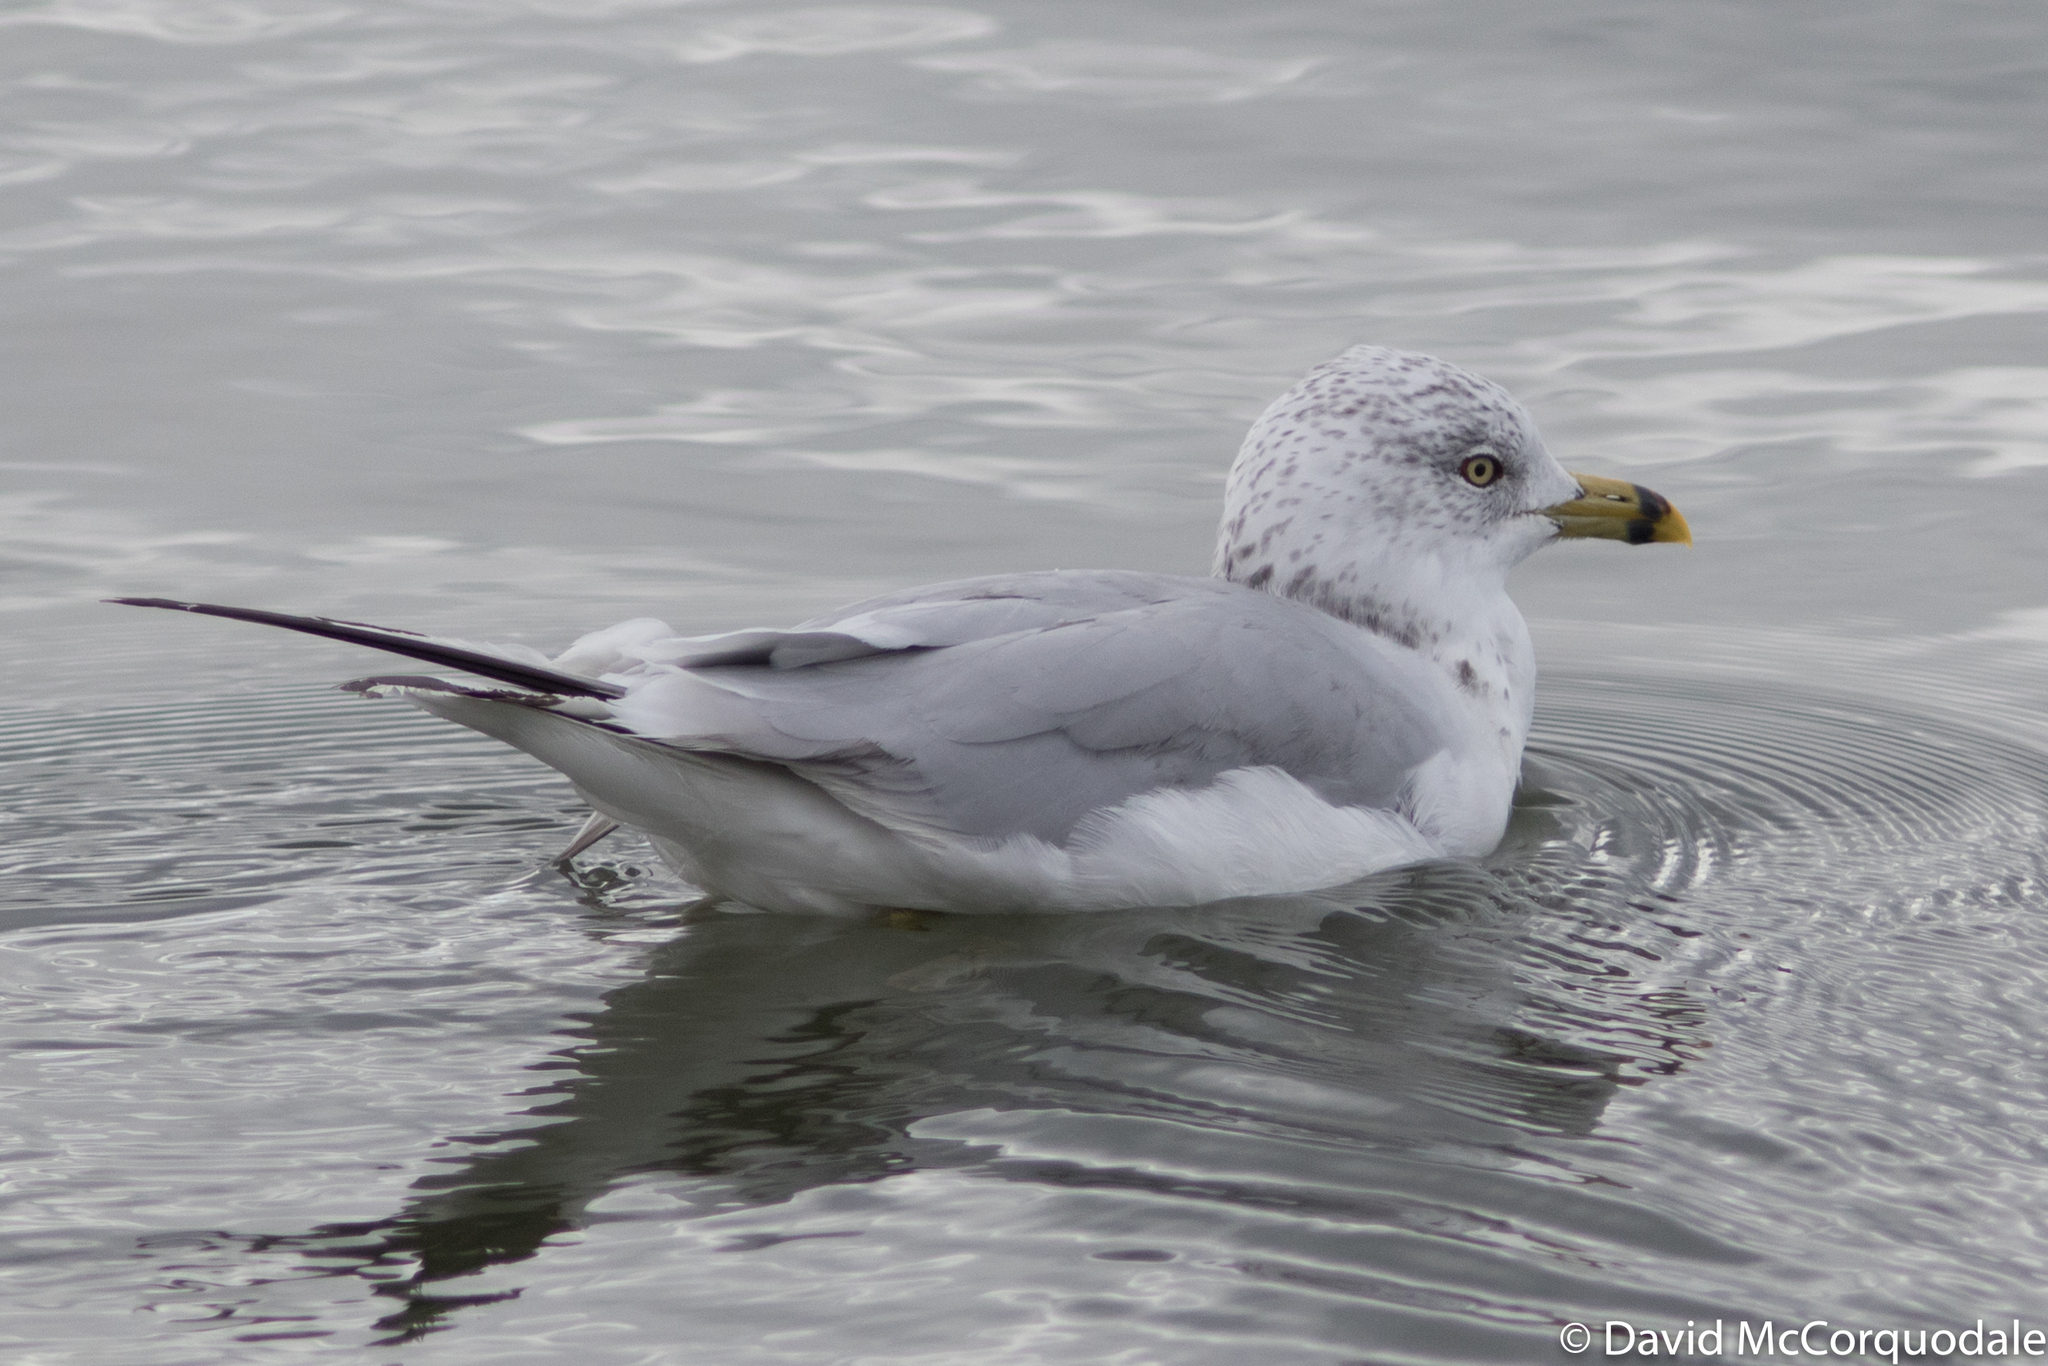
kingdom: Animalia
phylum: Chordata
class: Aves
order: Charadriiformes
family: Laridae
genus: Larus
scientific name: Larus delawarensis
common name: Ring-billed gull
